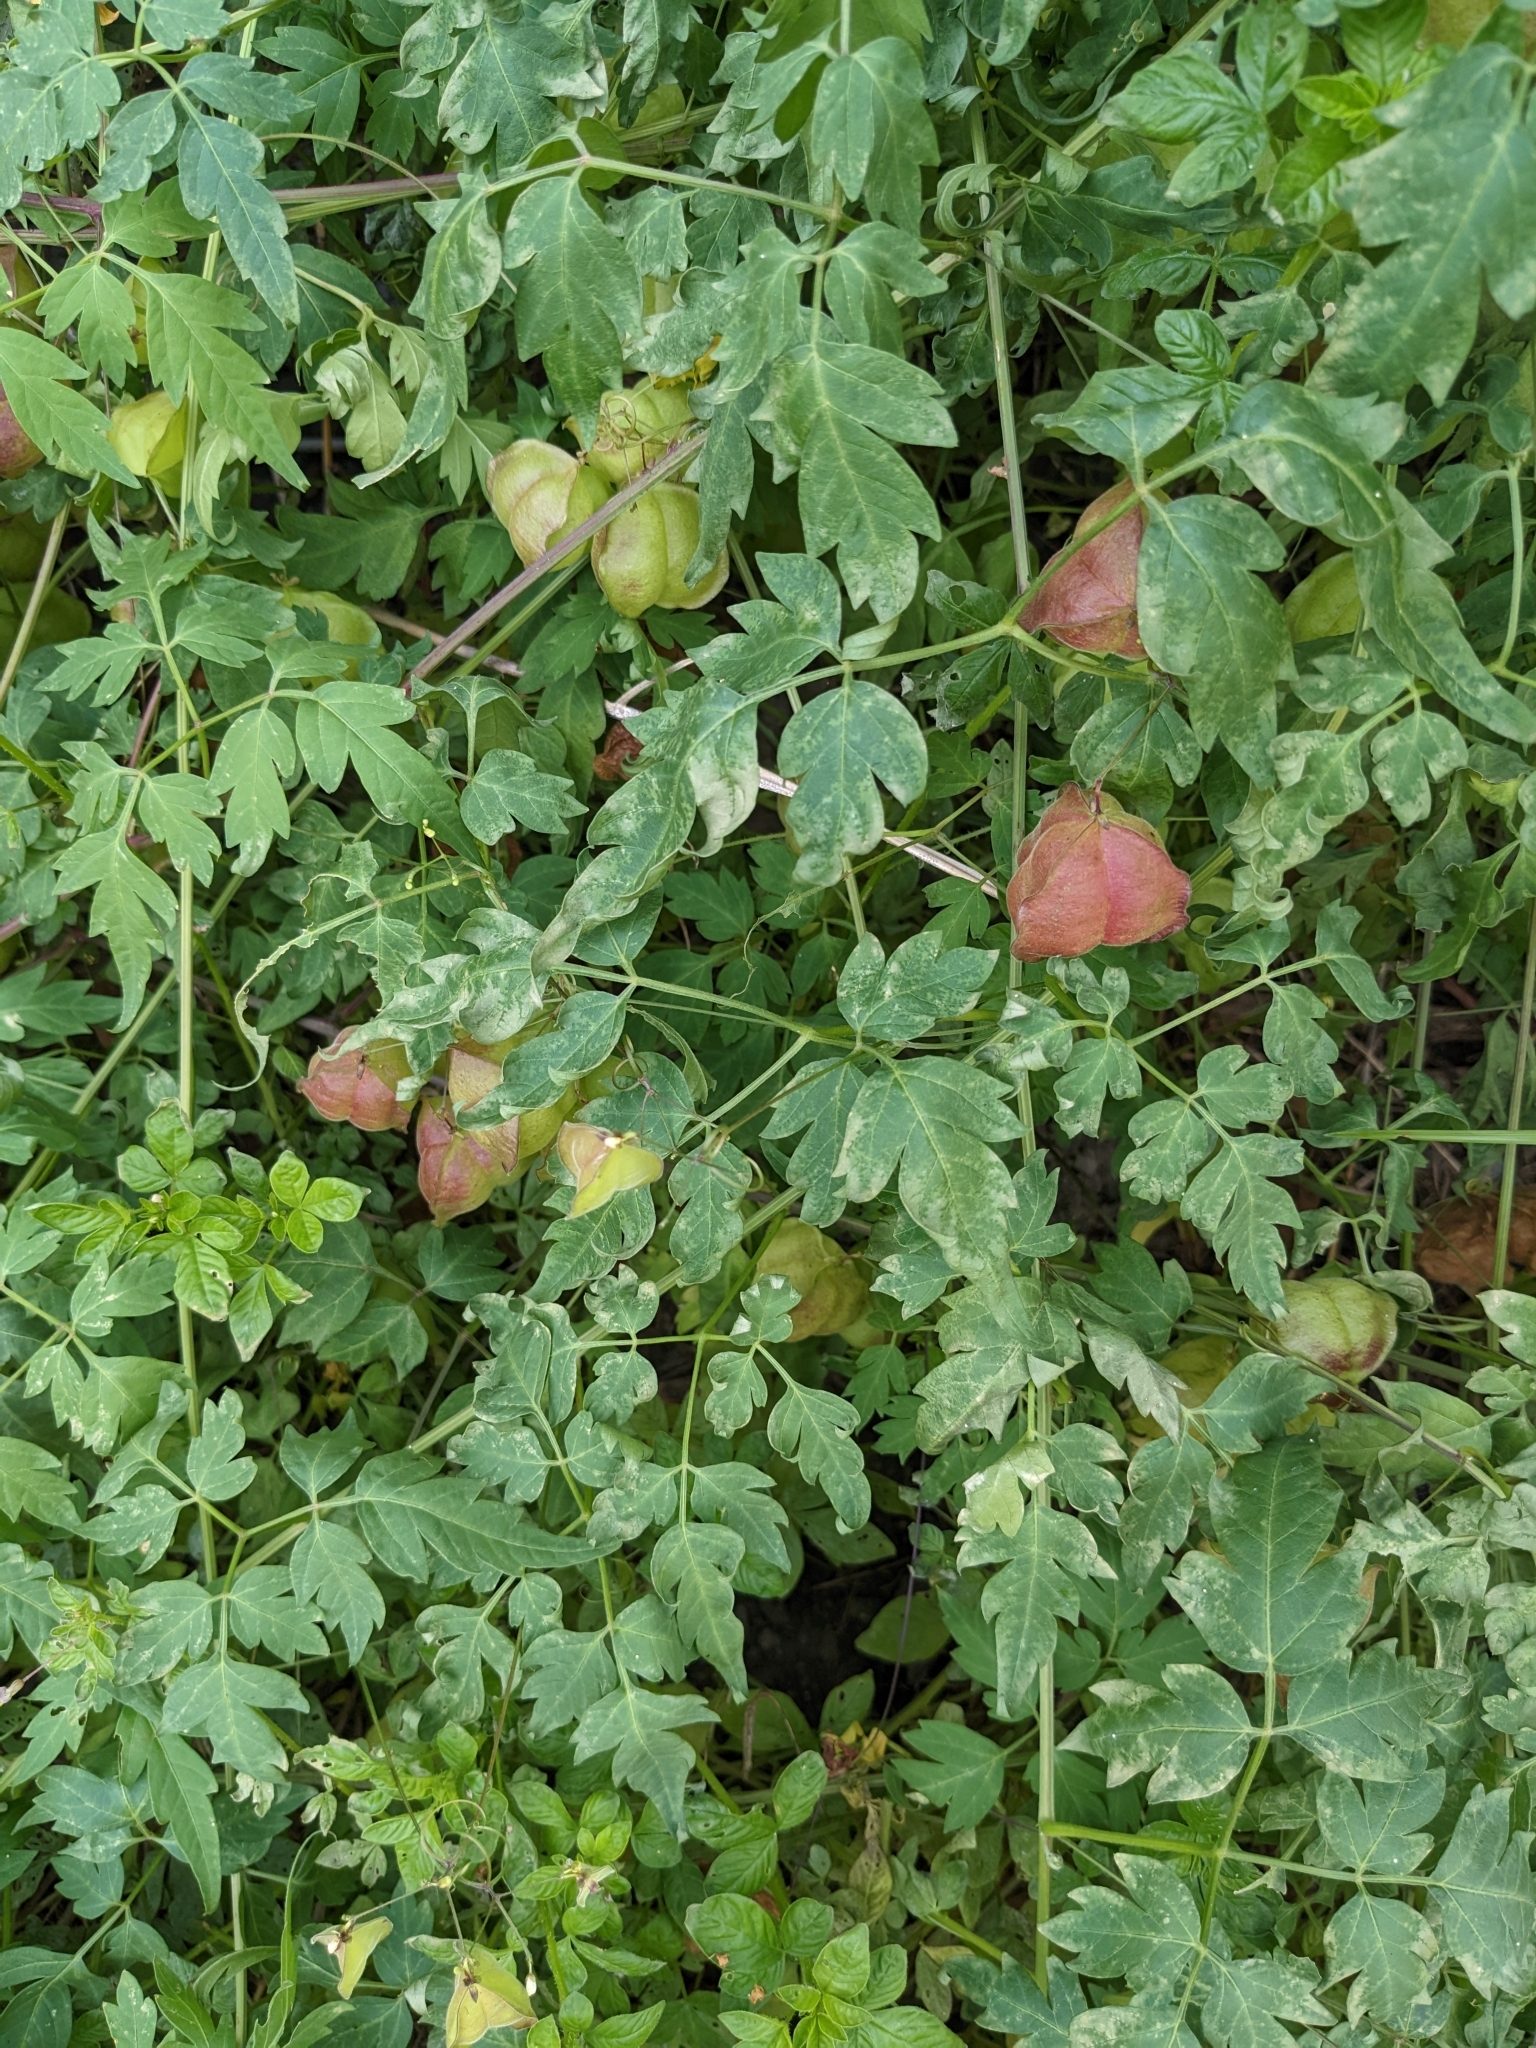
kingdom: Plantae
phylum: Tracheophyta
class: Magnoliopsida
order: Sapindales
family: Sapindaceae
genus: Cardiospermum
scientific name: Cardiospermum halicacabum
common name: Balloon vine
